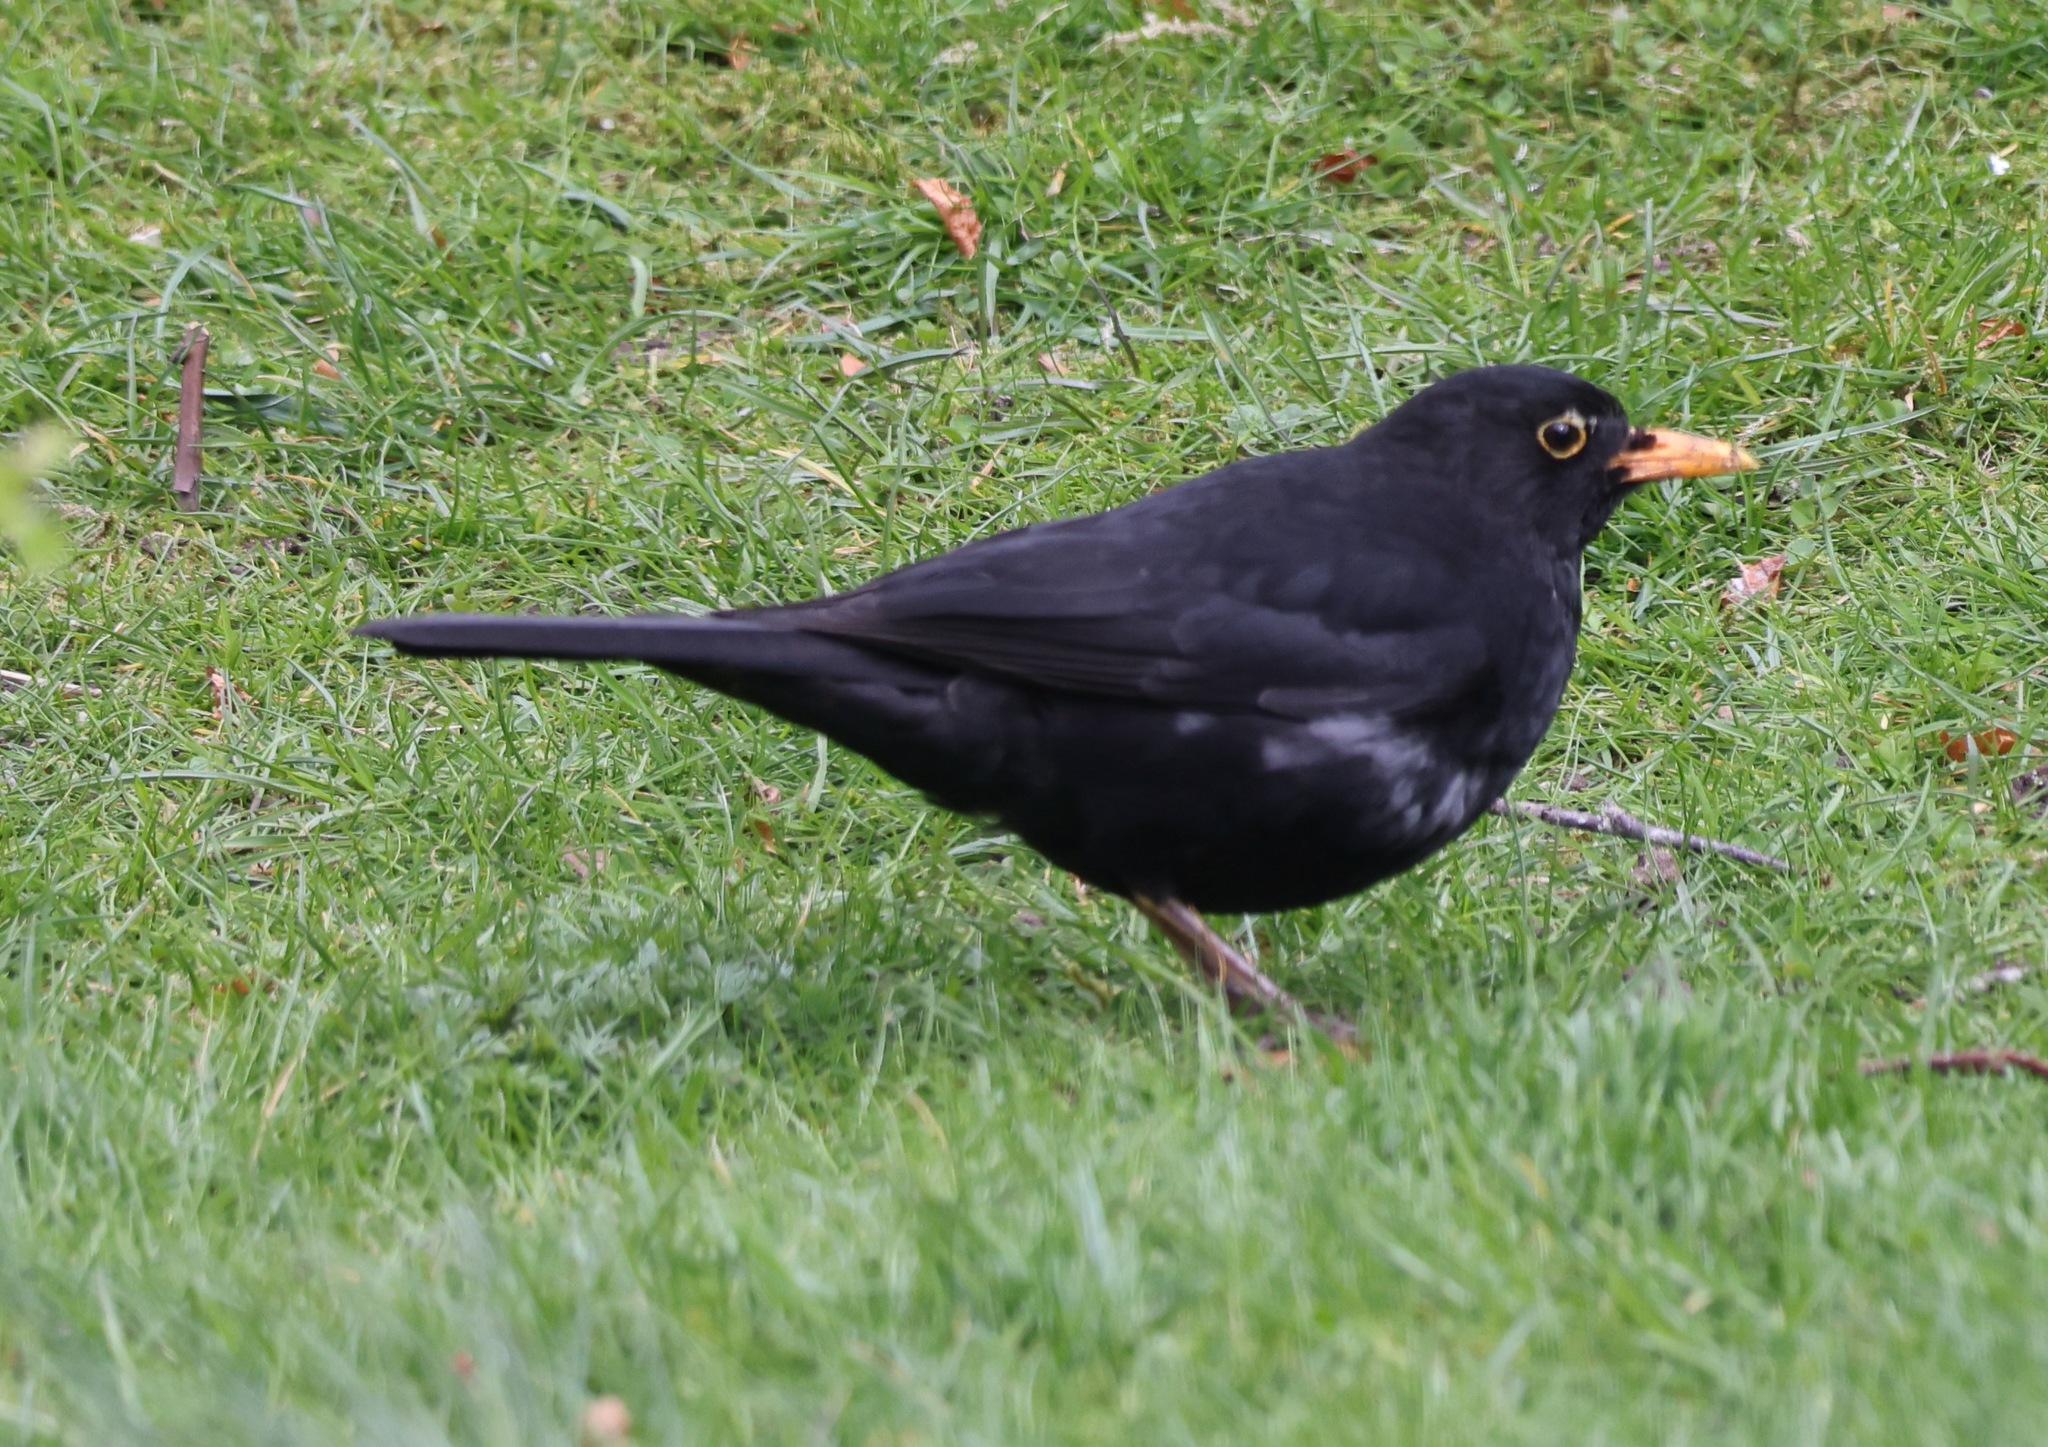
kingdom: Animalia
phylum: Chordata
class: Aves
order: Passeriformes
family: Turdidae
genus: Turdus
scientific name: Turdus merula
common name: Common blackbird
